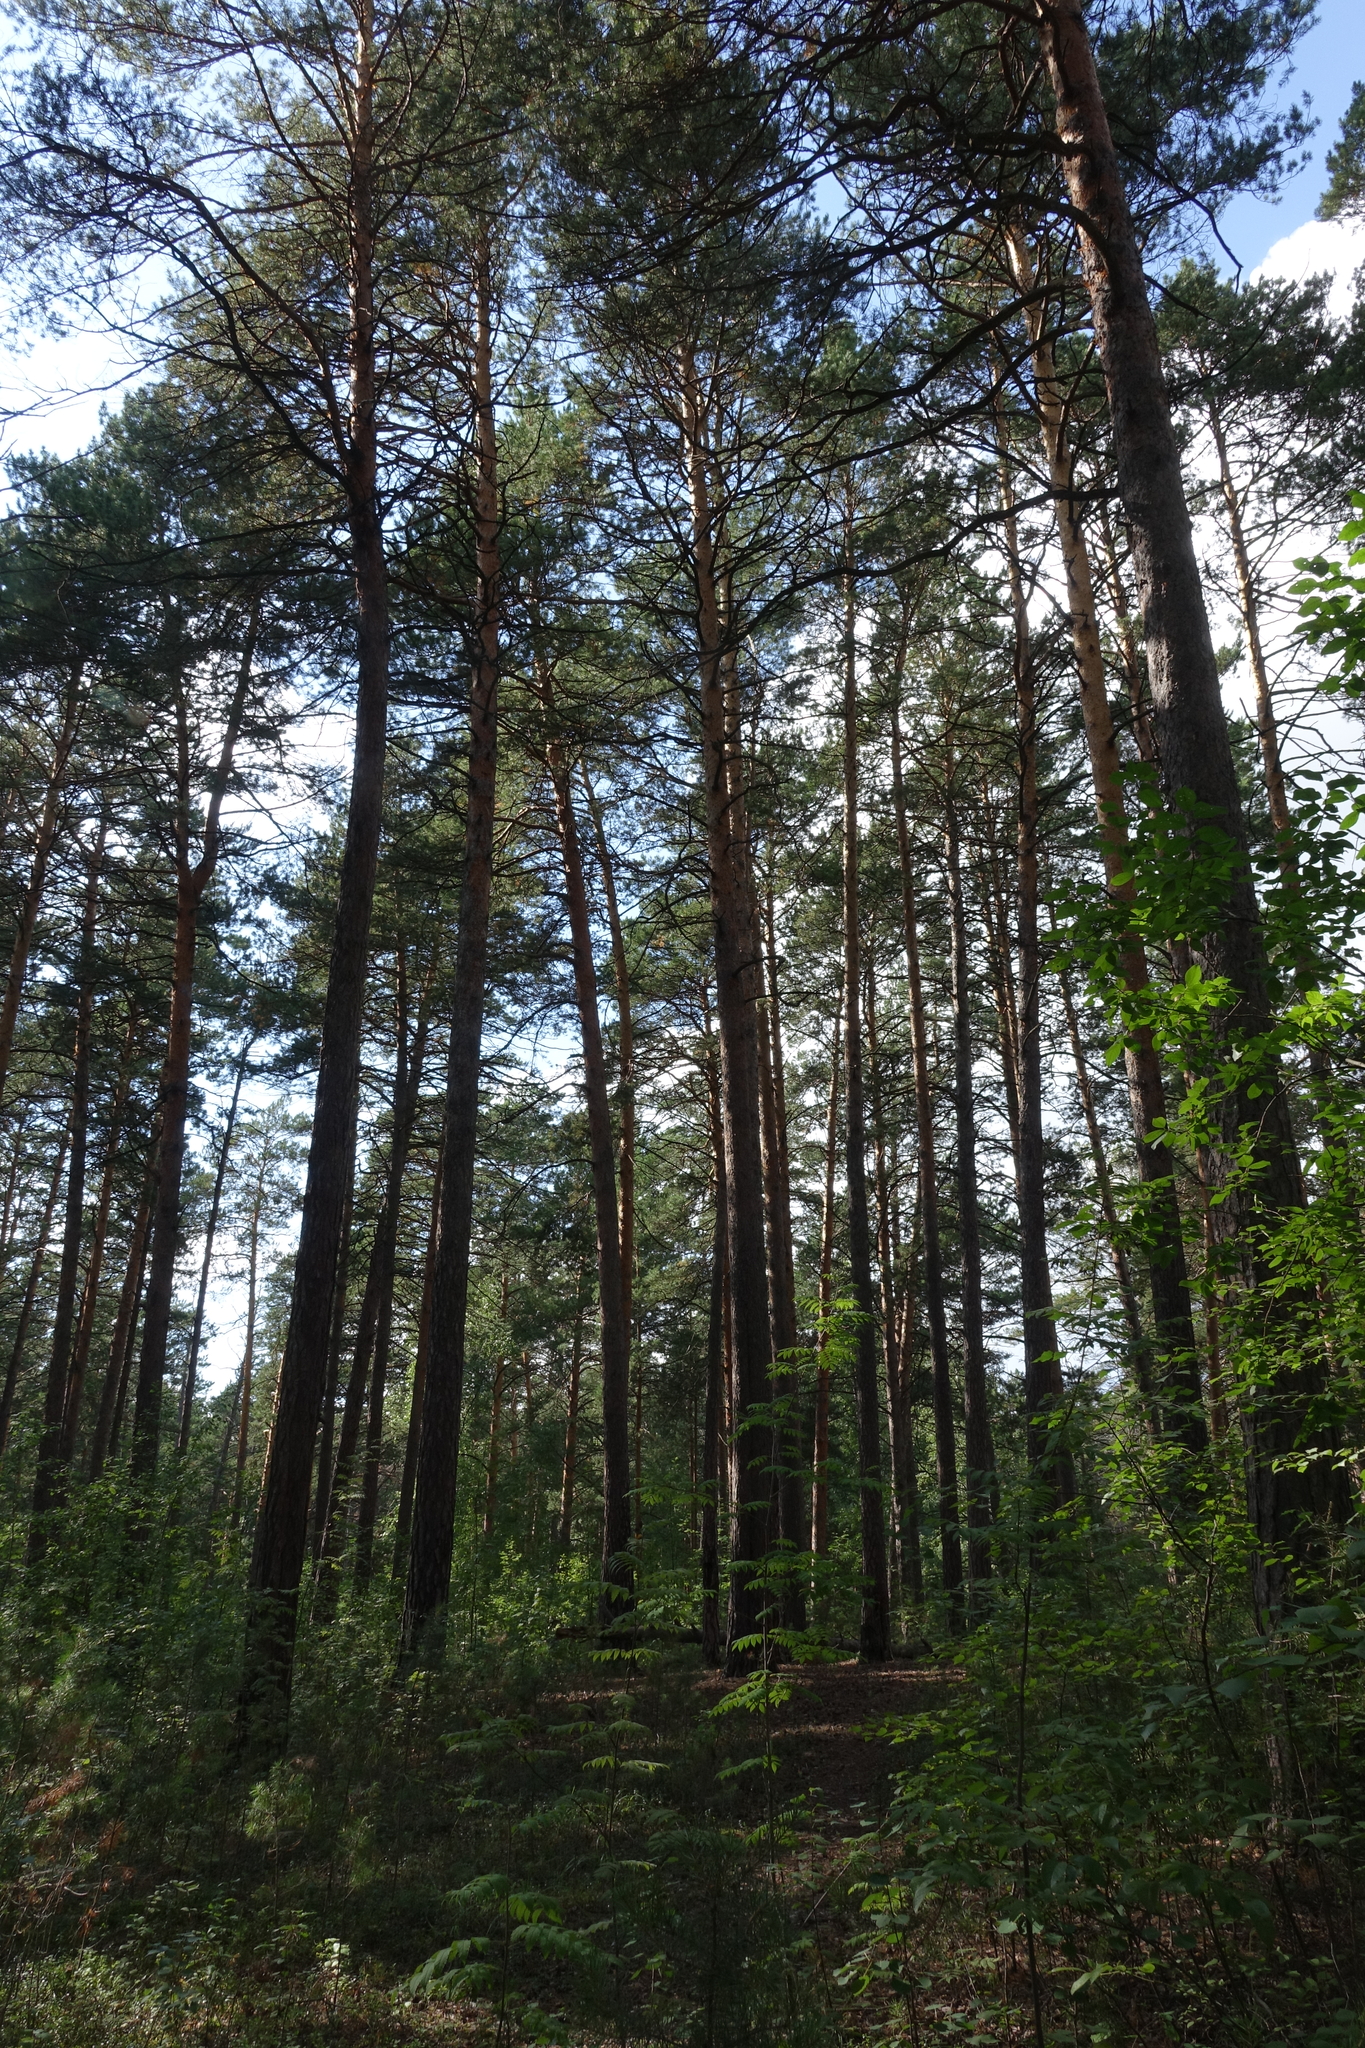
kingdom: Plantae
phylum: Tracheophyta
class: Pinopsida
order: Pinales
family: Pinaceae
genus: Pinus
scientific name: Pinus sylvestris
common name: Scots pine
